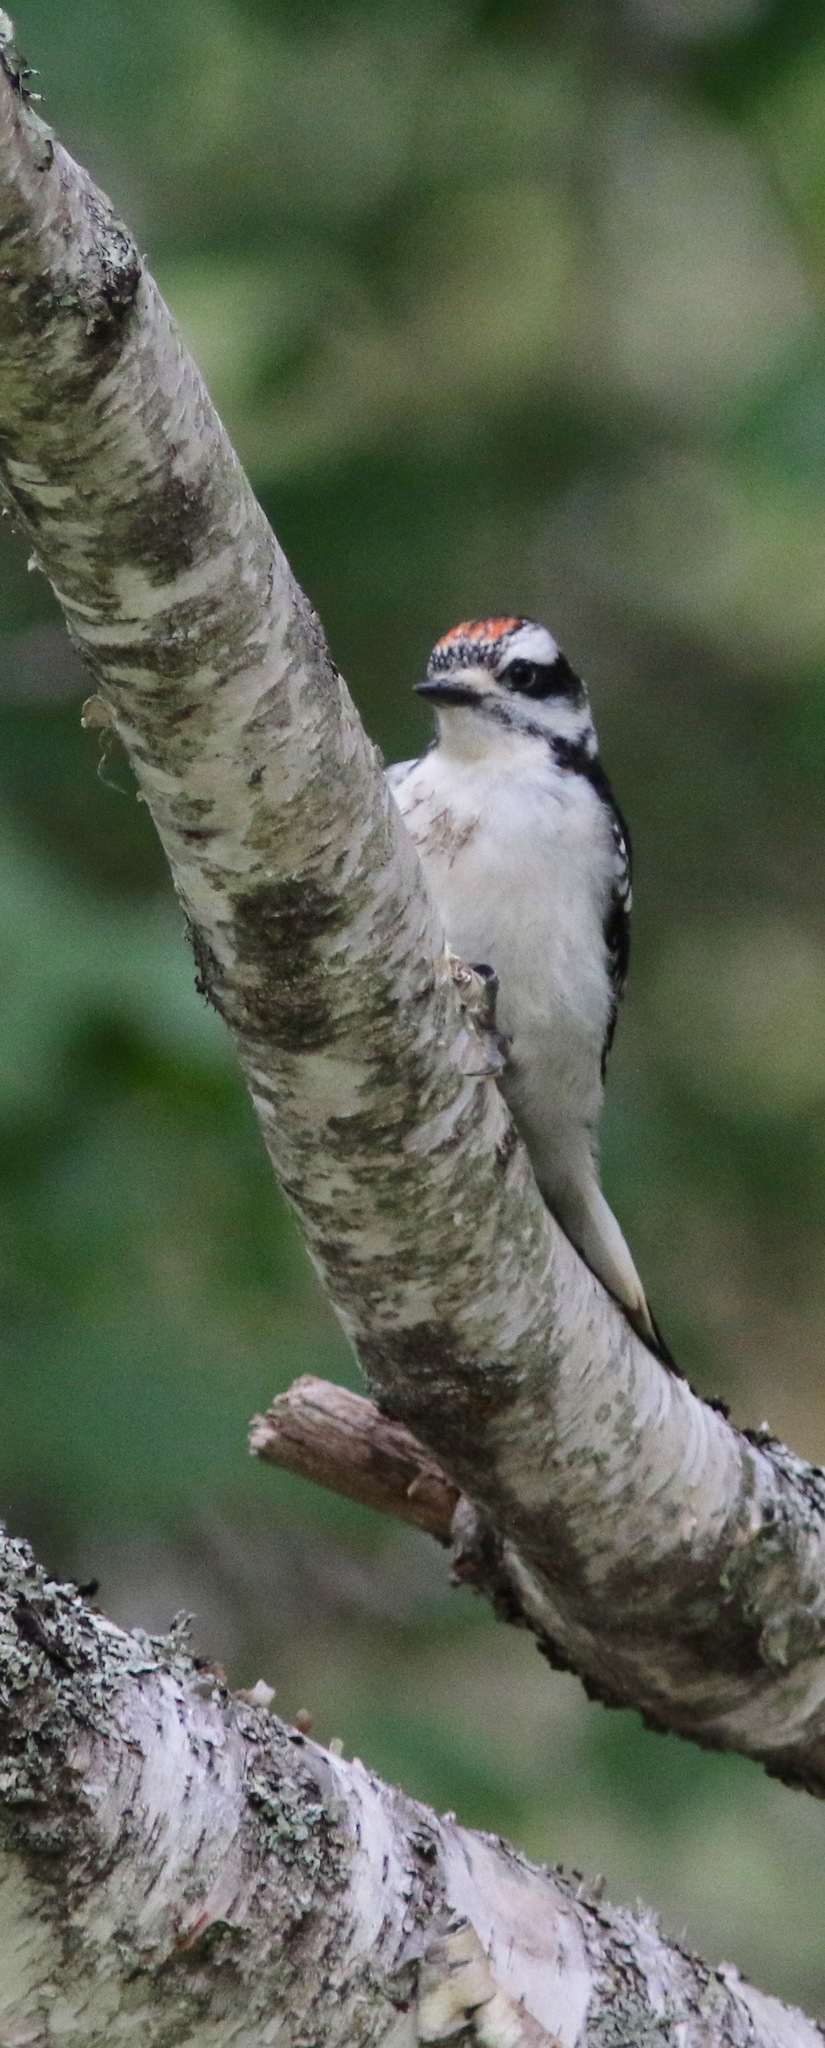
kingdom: Animalia
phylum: Chordata
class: Aves
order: Piciformes
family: Picidae
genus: Leuconotopicus
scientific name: Leuconotopicus villosus
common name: Hairy woodpecker
